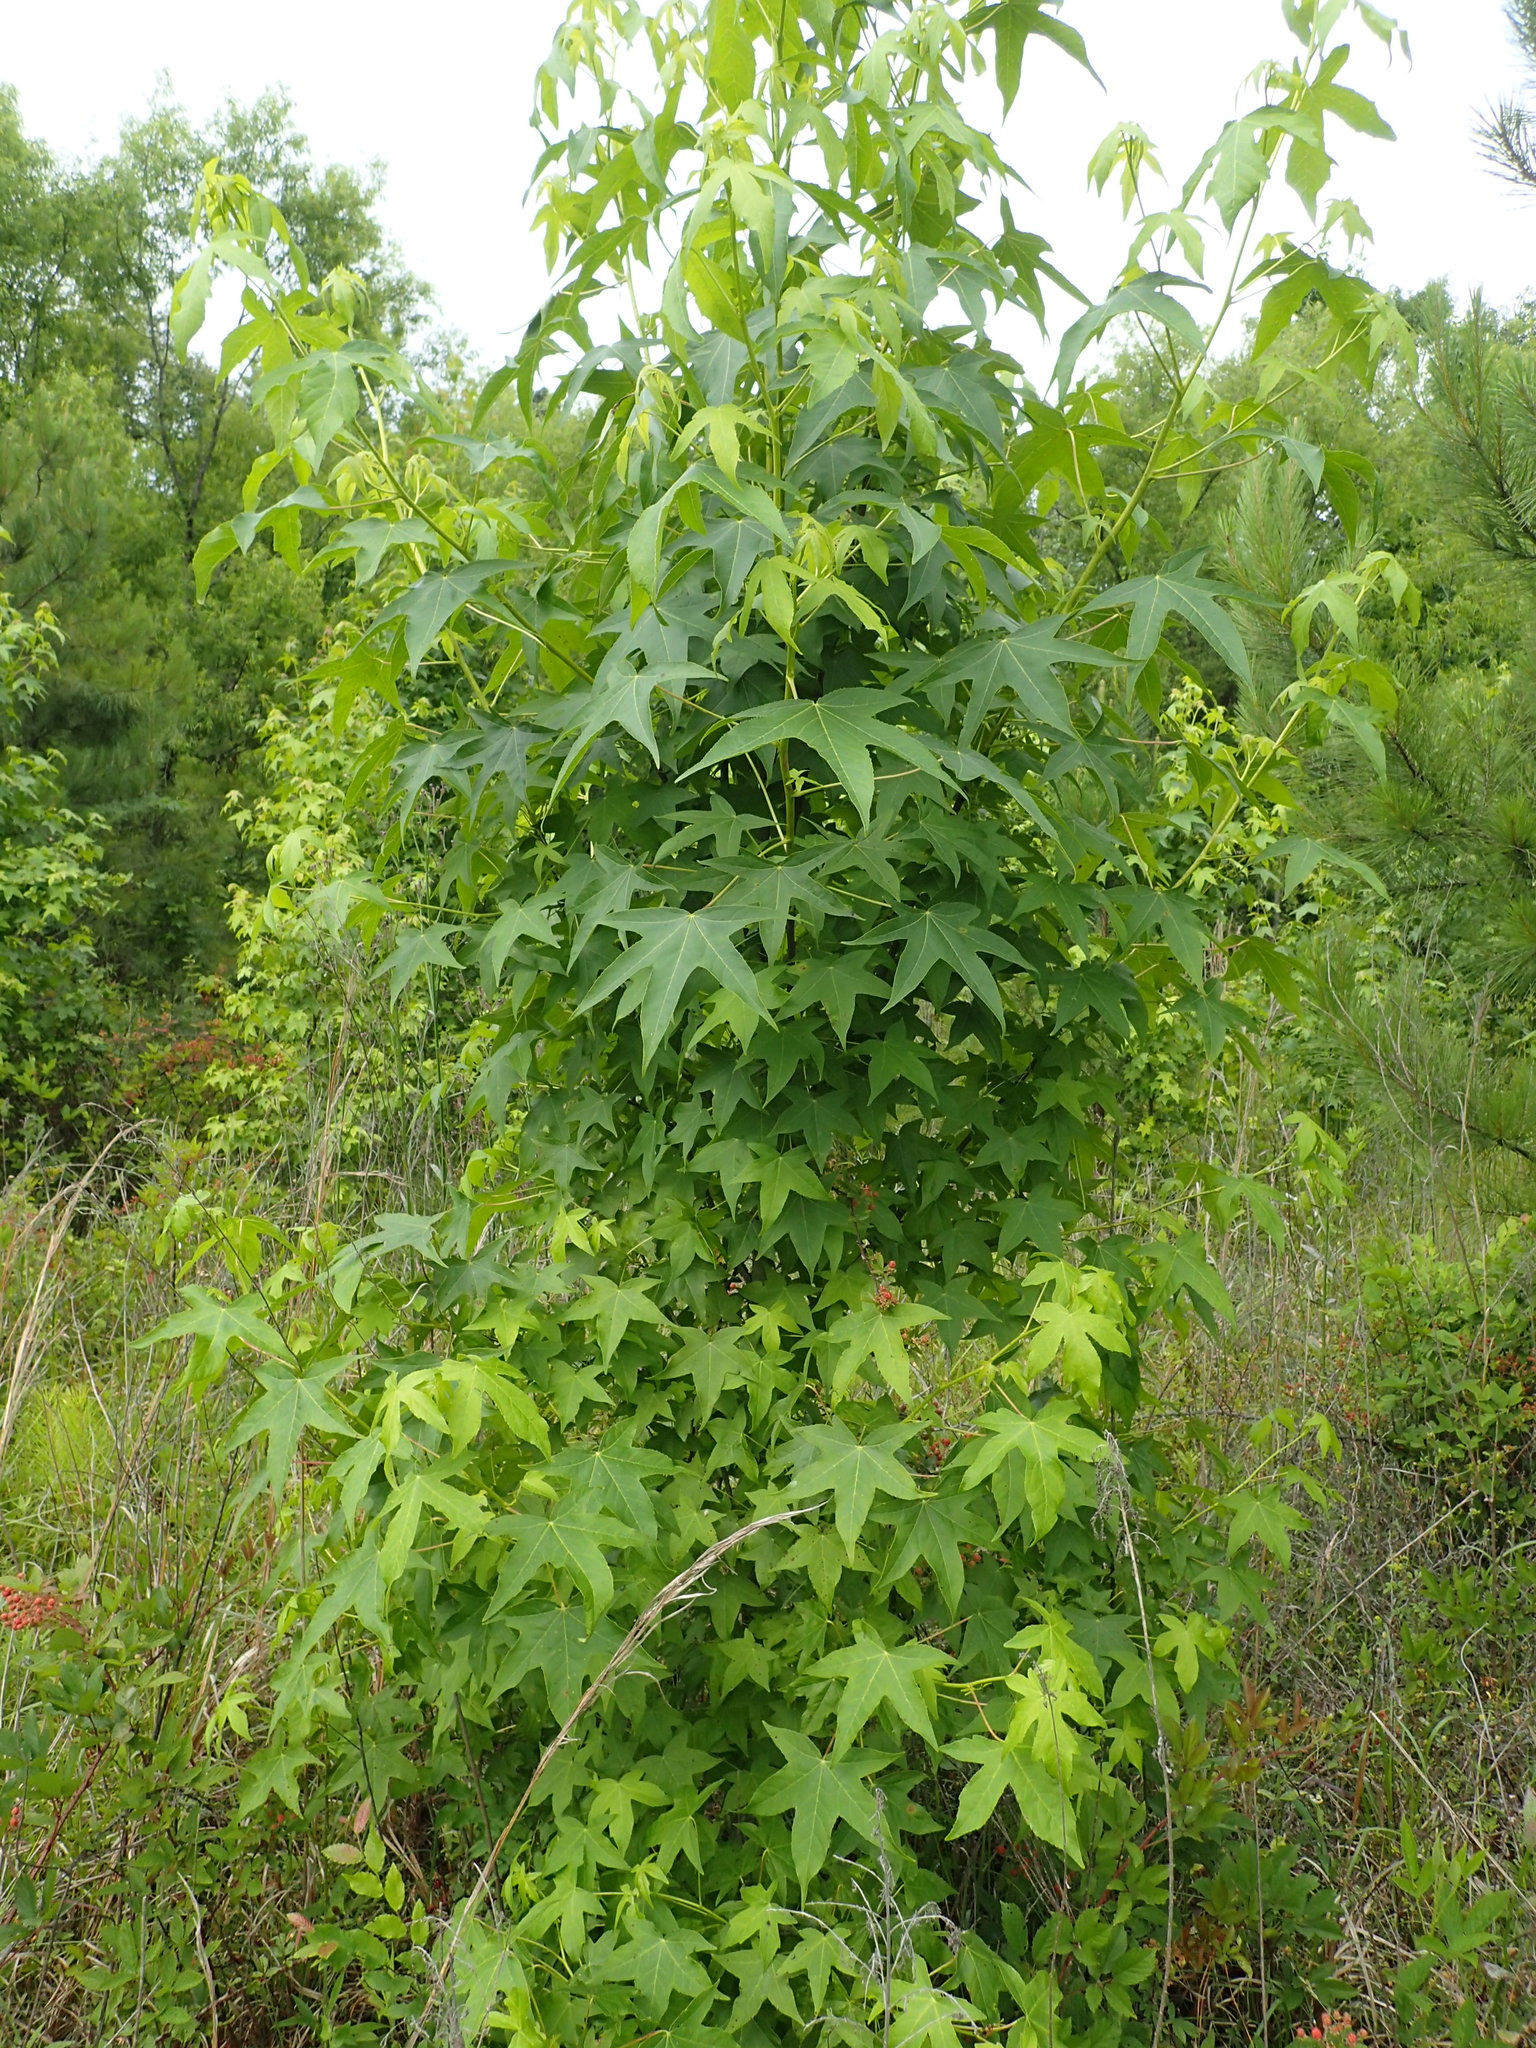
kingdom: Plantae
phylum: Tracheophyta
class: Magnoliopsida
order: Saxifragales
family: Altingiaceae
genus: Liquidambar
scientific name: Liquidambar styraciflua
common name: Sweet gum
